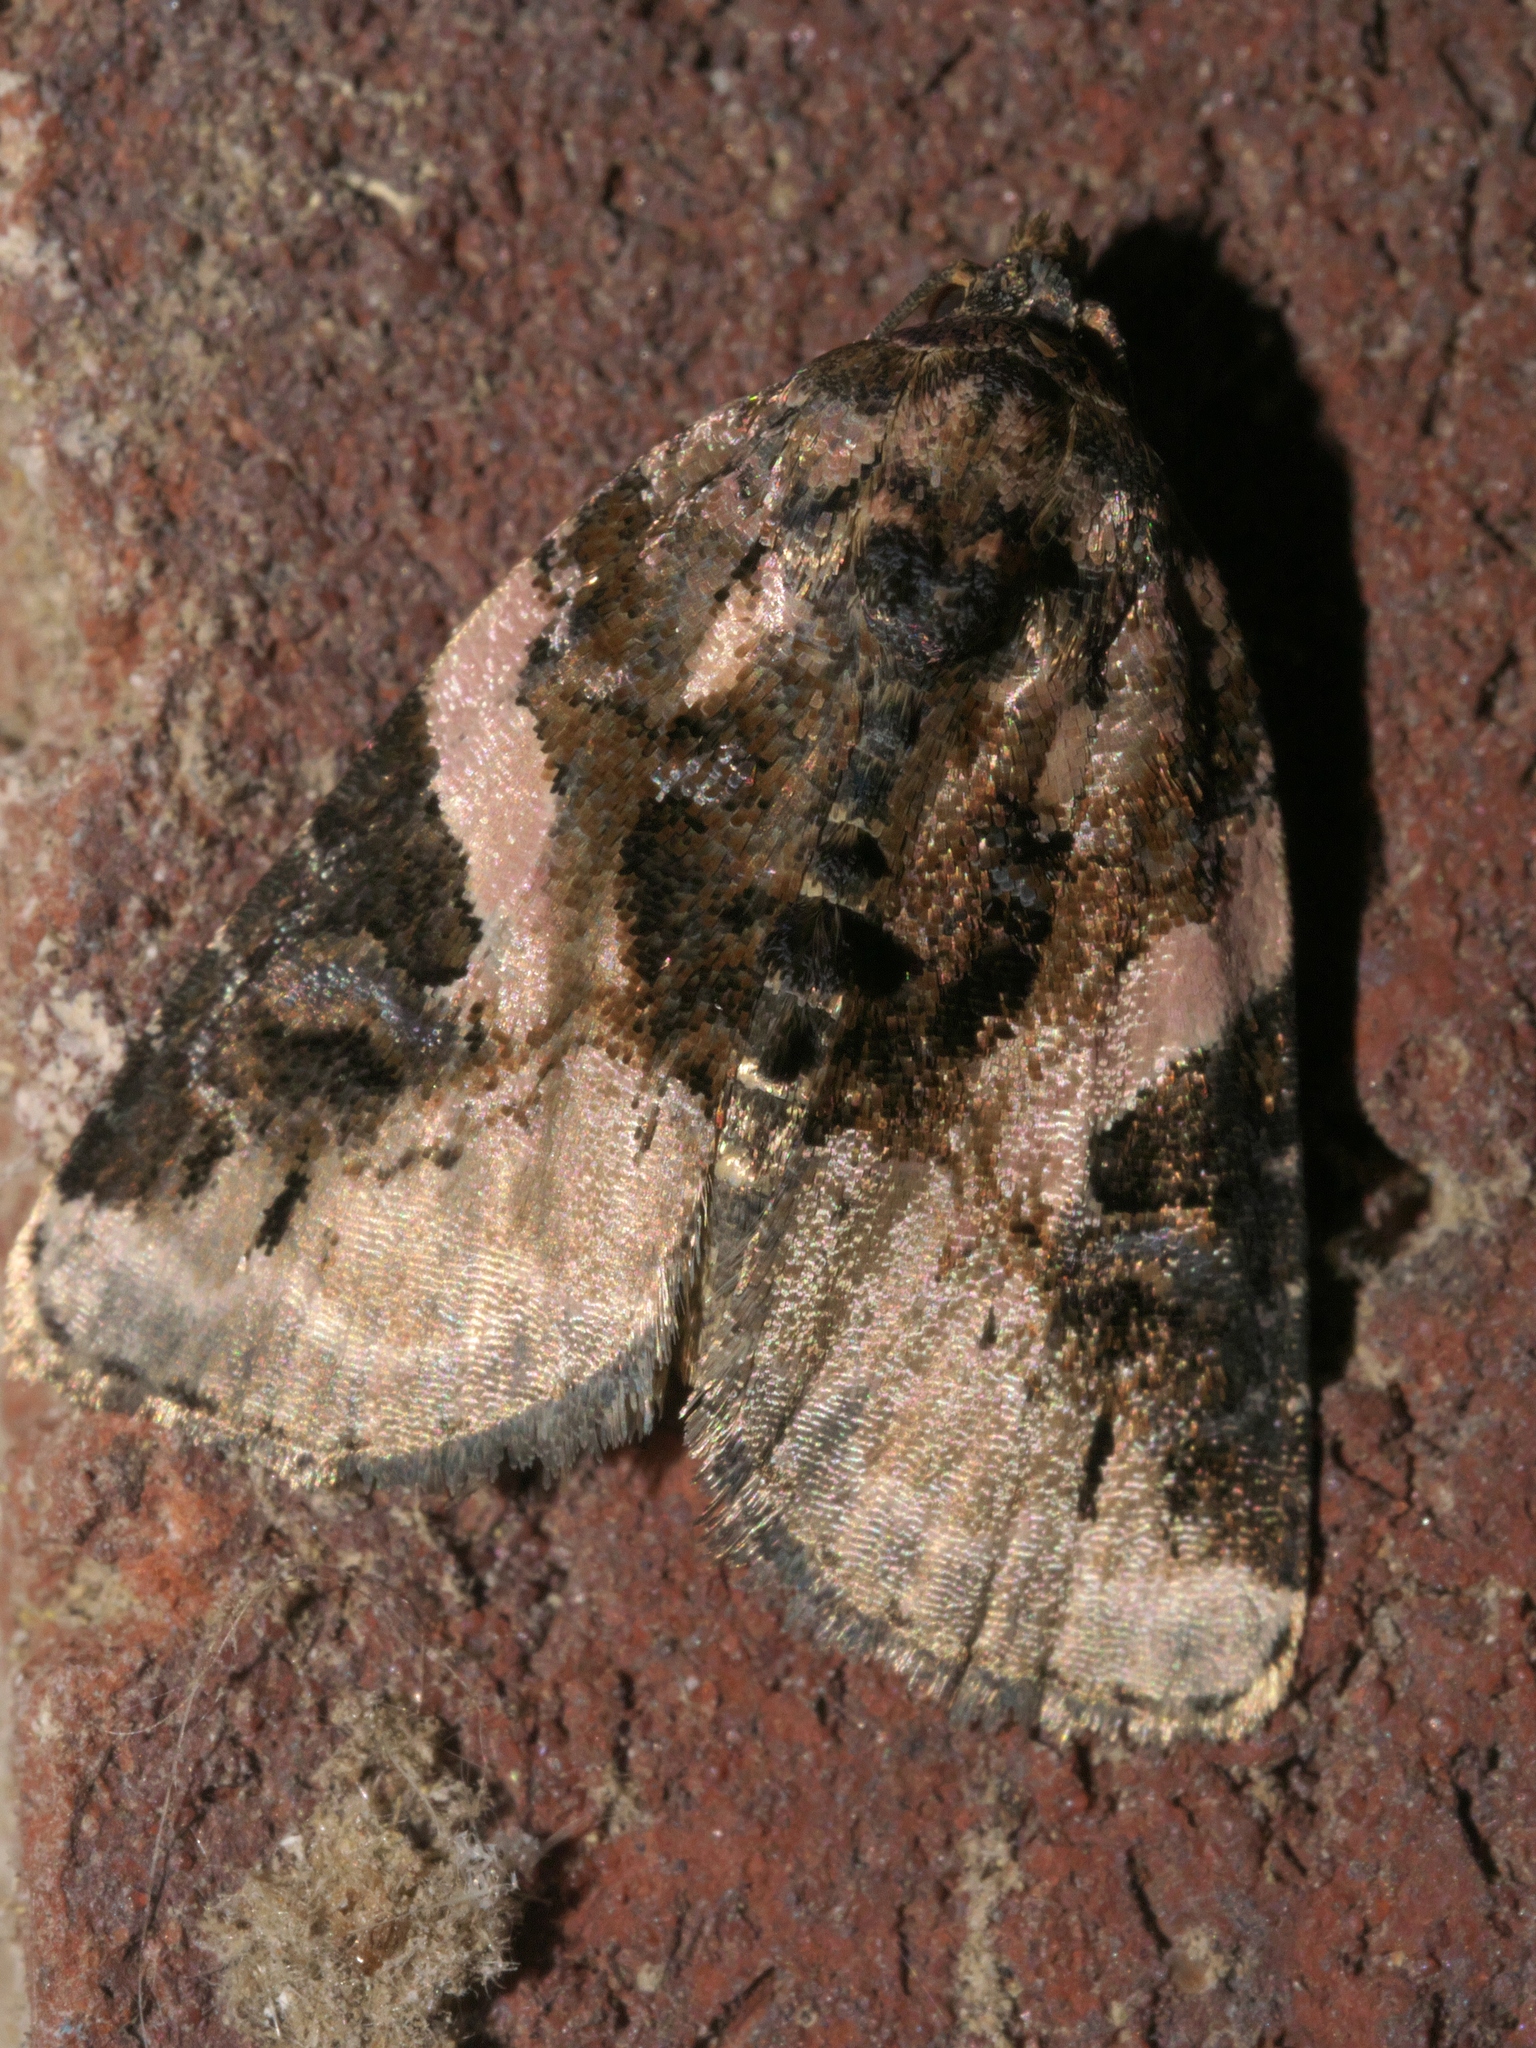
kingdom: Animalia
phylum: Arthropoda
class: Insecta
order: Lepidoptera
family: Noctuidae
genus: Pseudeustrotia
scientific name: Pseudeustrotia carneola
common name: Pink-barred lithacodia moth
